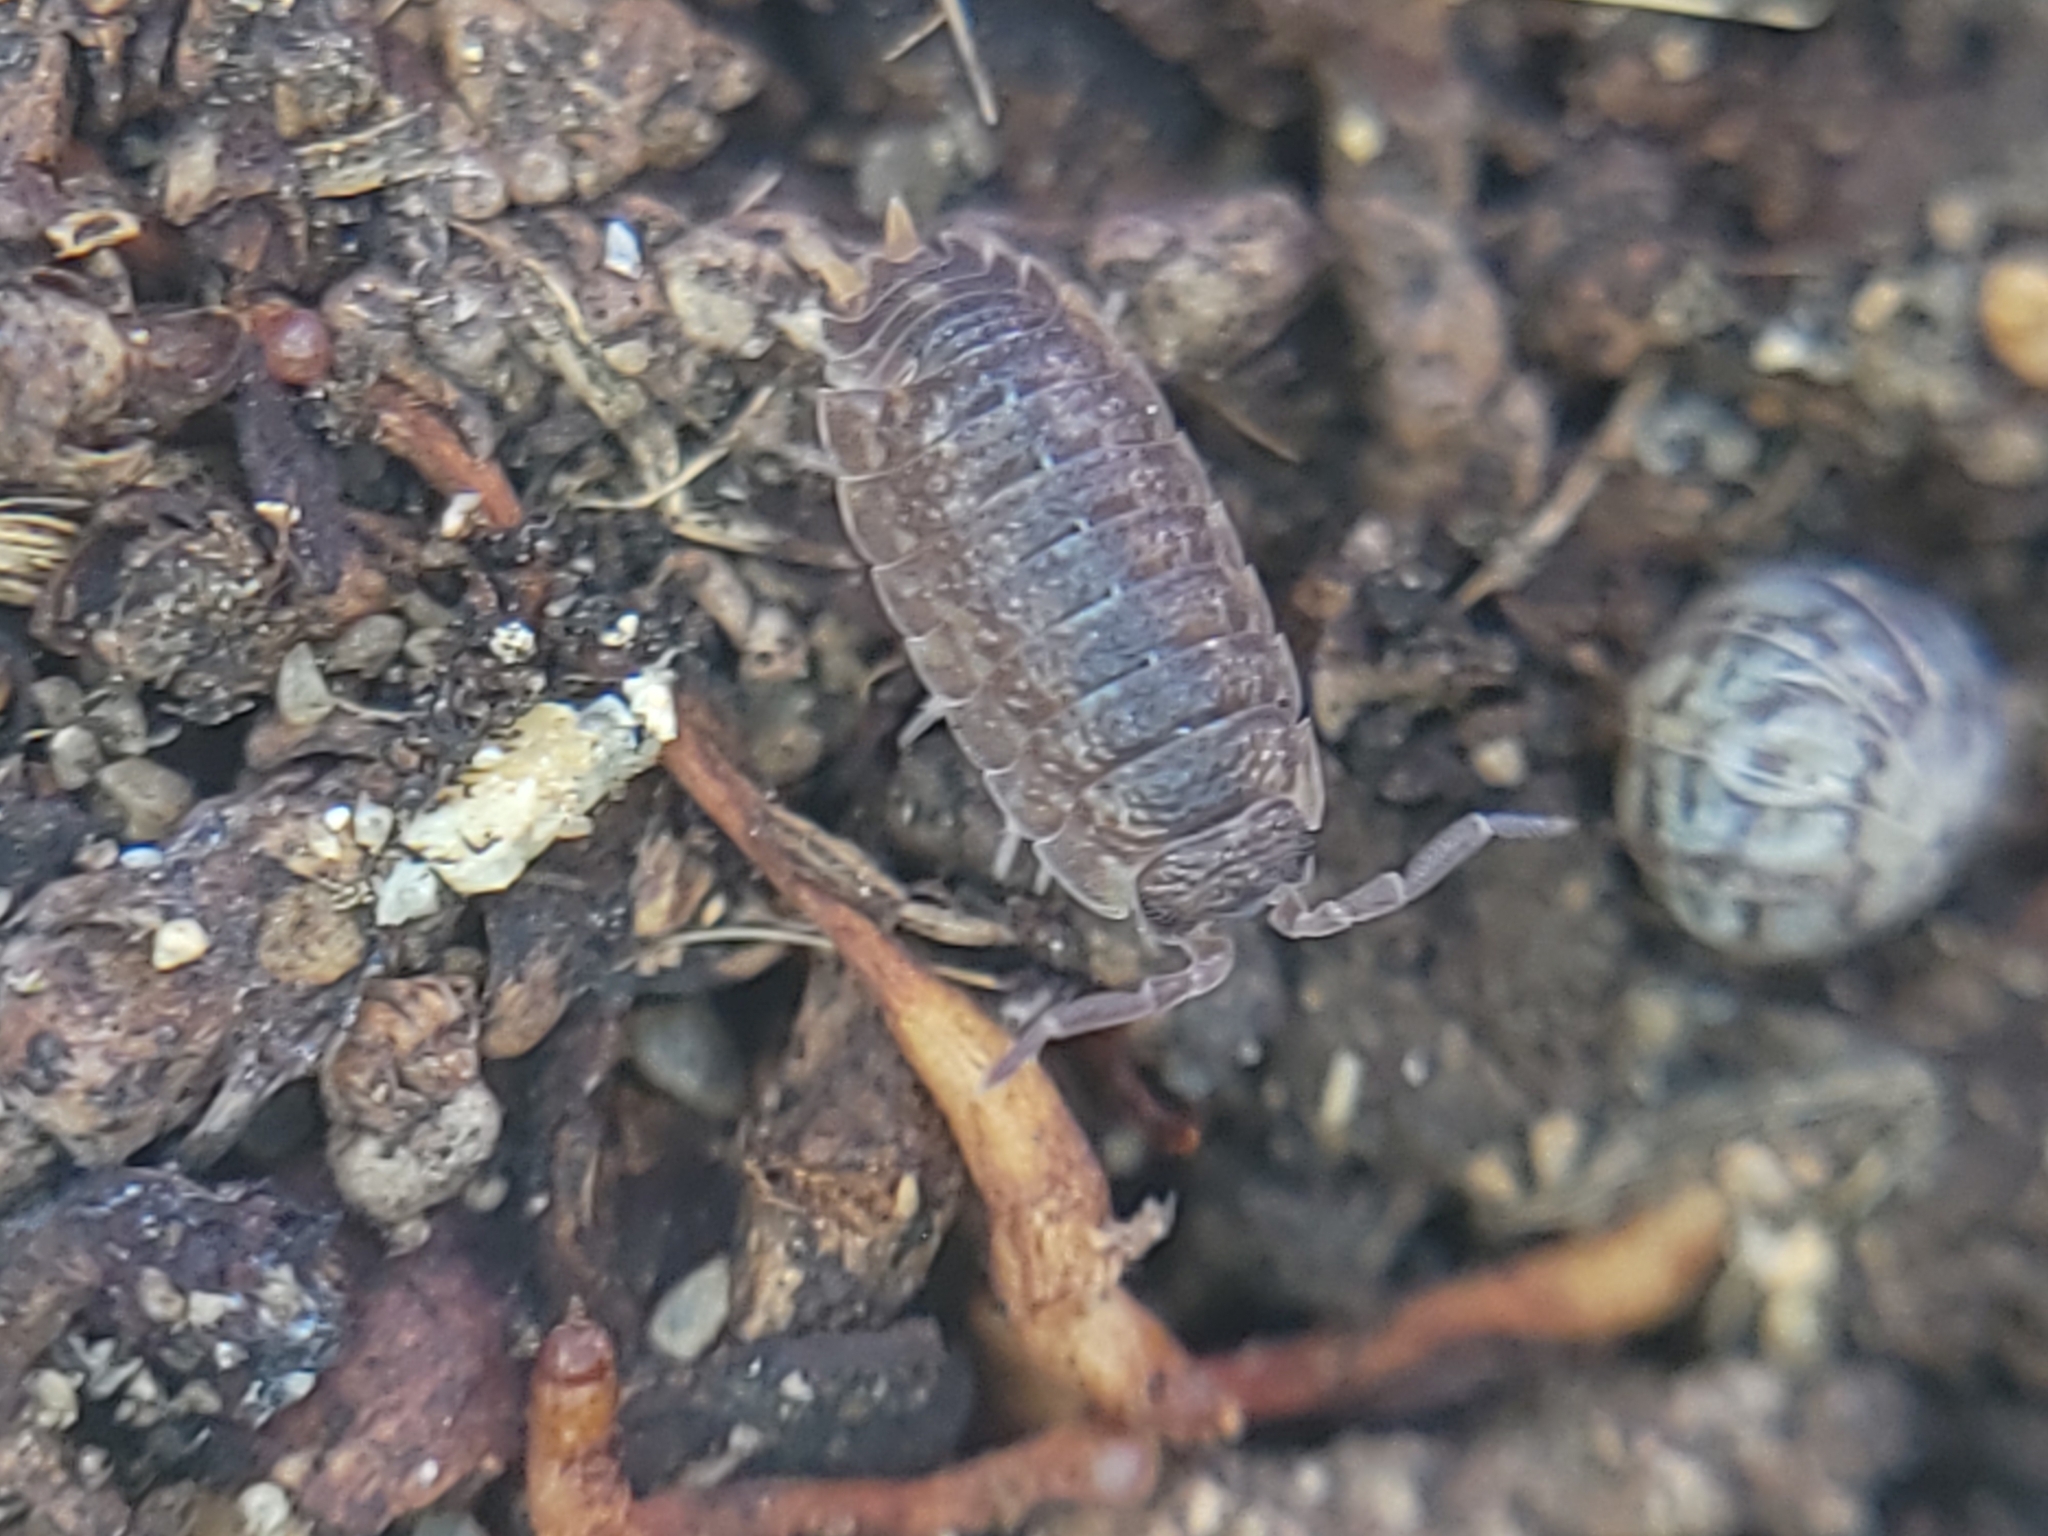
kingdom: Animalia
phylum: Arthropoda
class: Malacostraca
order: Isopoda
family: Porcellionidae
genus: Porcellio
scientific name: Porcellio scaber
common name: Common rough woodlouse
